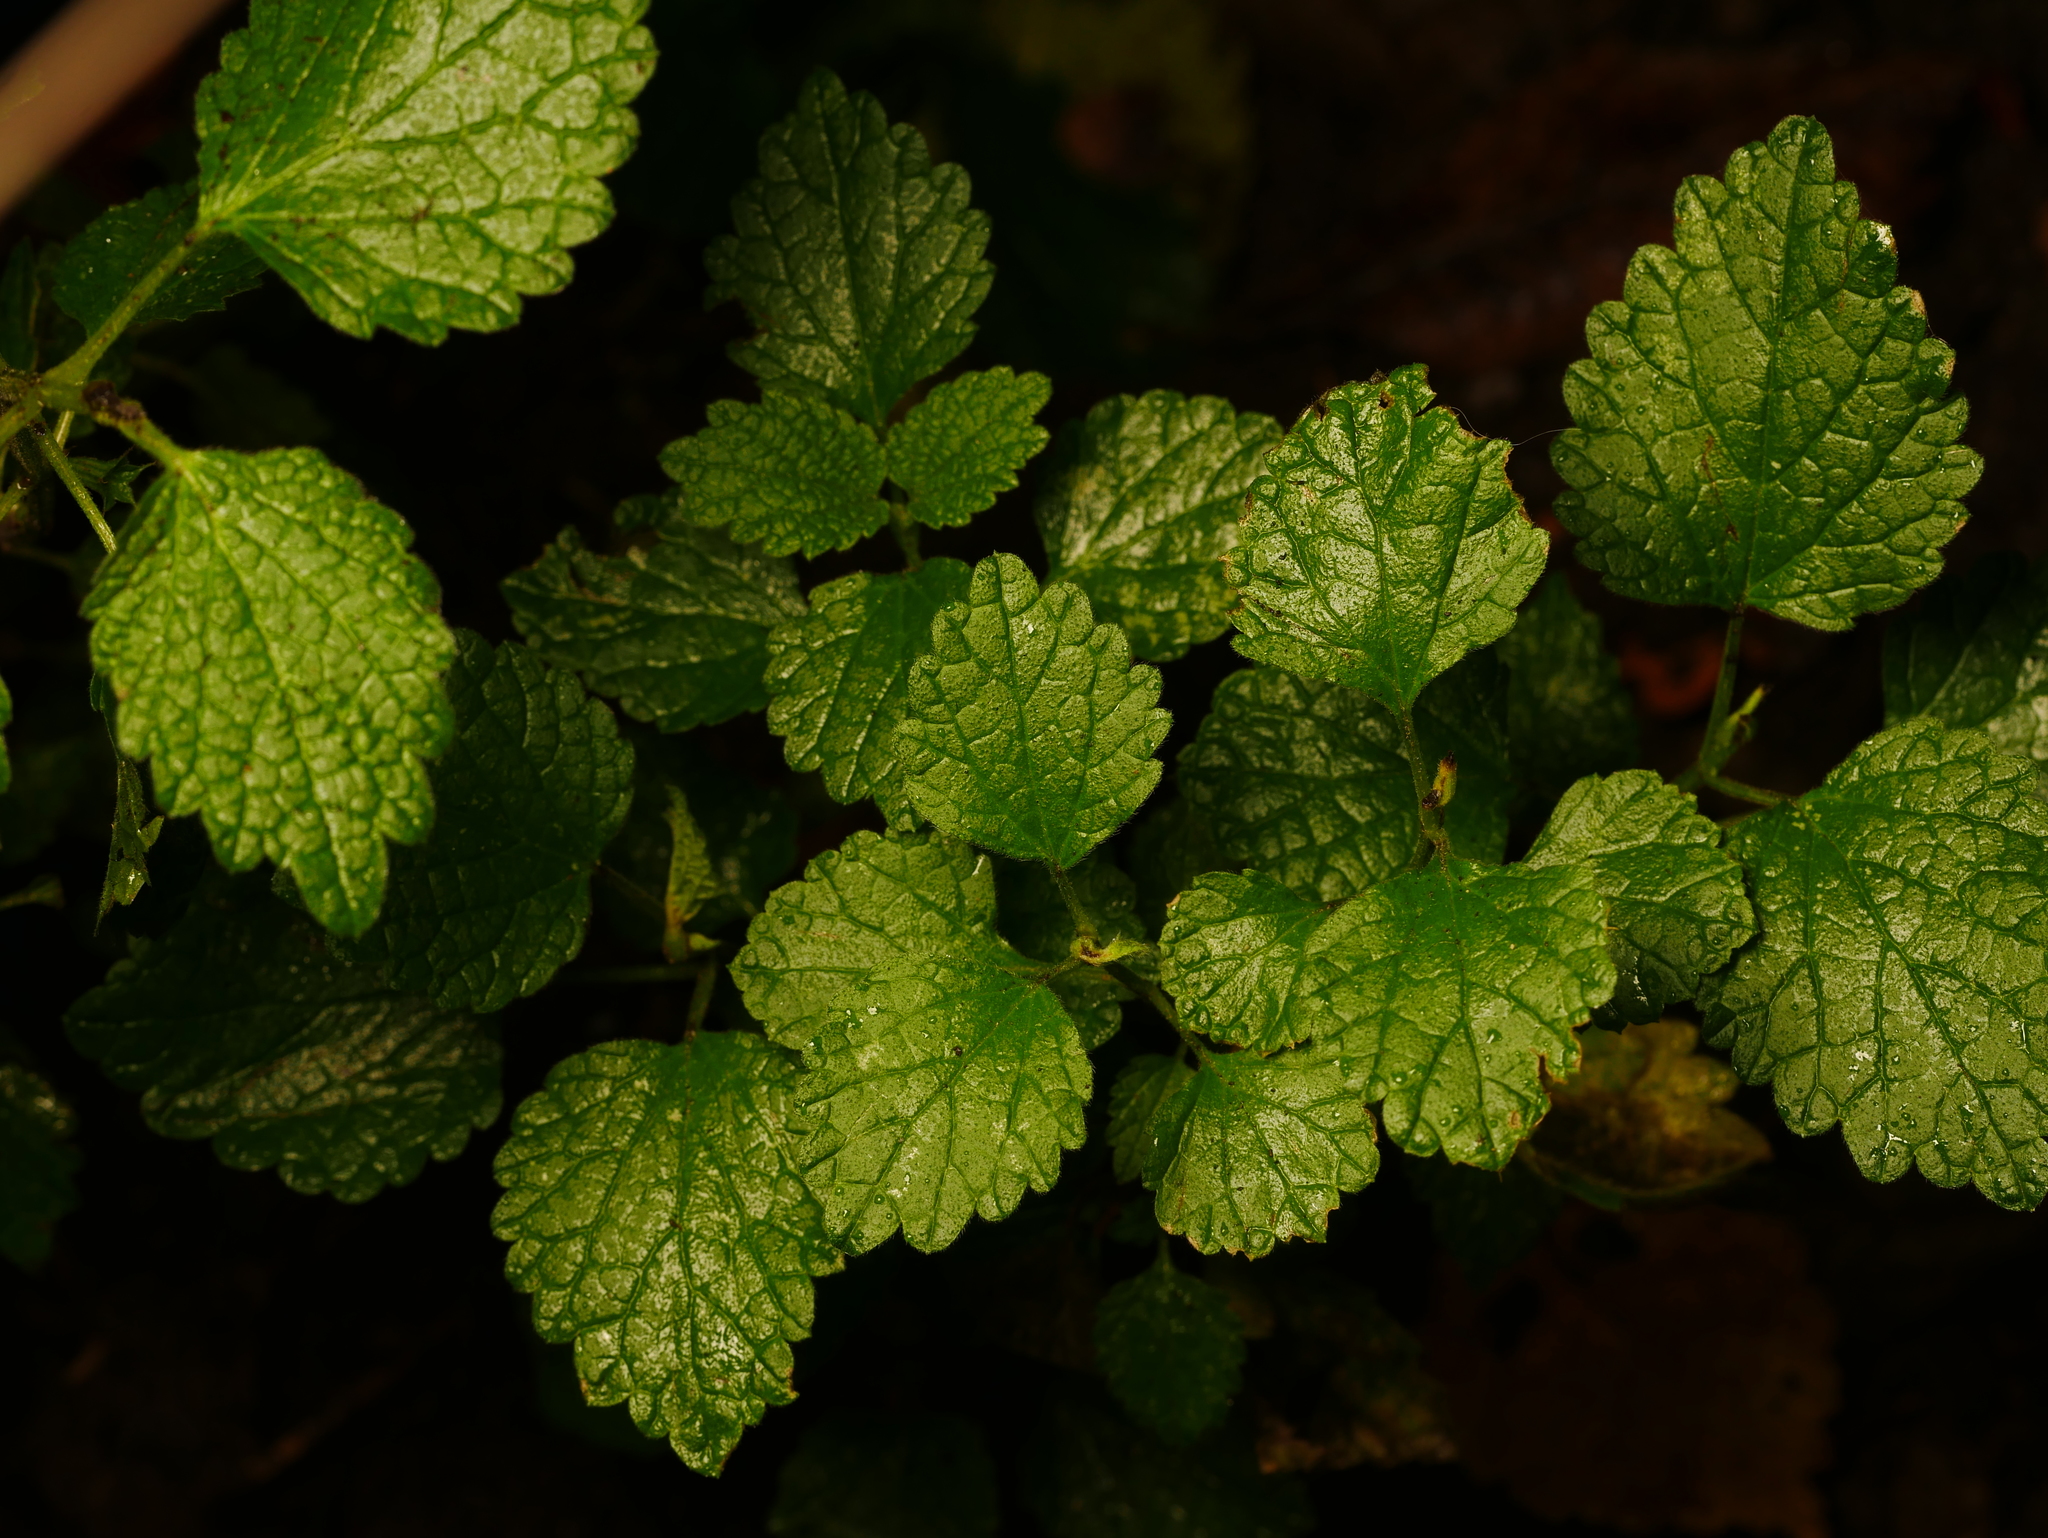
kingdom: Plantae
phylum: Tracheophyta
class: Magnoliopsida
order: Lamiales
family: Lamiaceae
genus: Ballota
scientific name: Ballota nigra
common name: Black horehound
